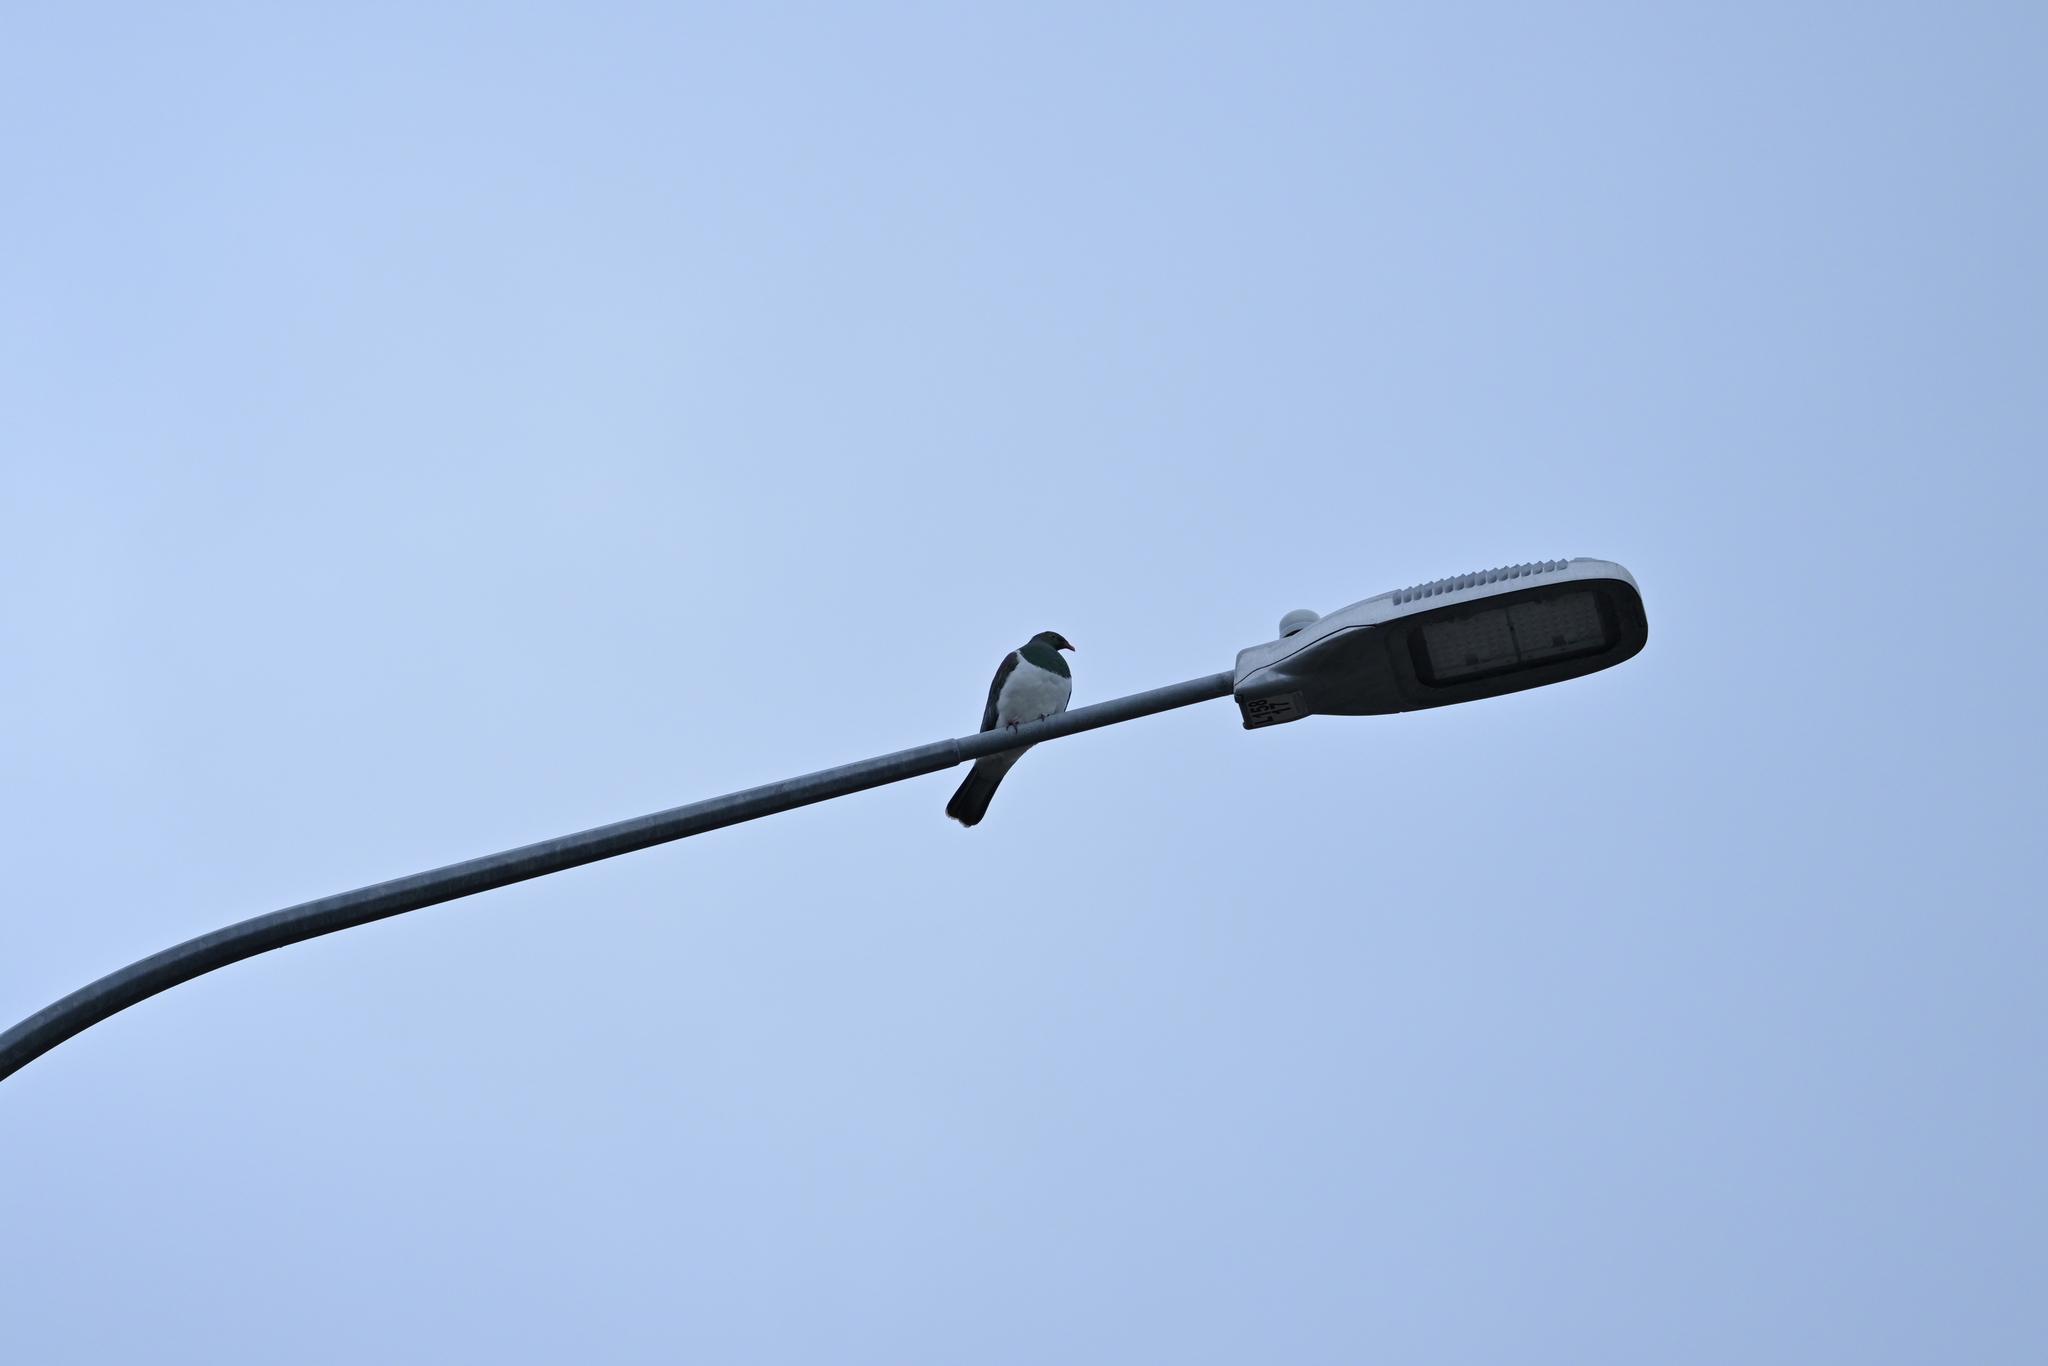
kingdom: Animalia
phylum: Chordata
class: Aves
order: Columbiformes
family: Columbidae
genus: Hemiphaga
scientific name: Hemiphaga novaeseelandiae
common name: New zealand pigeon
